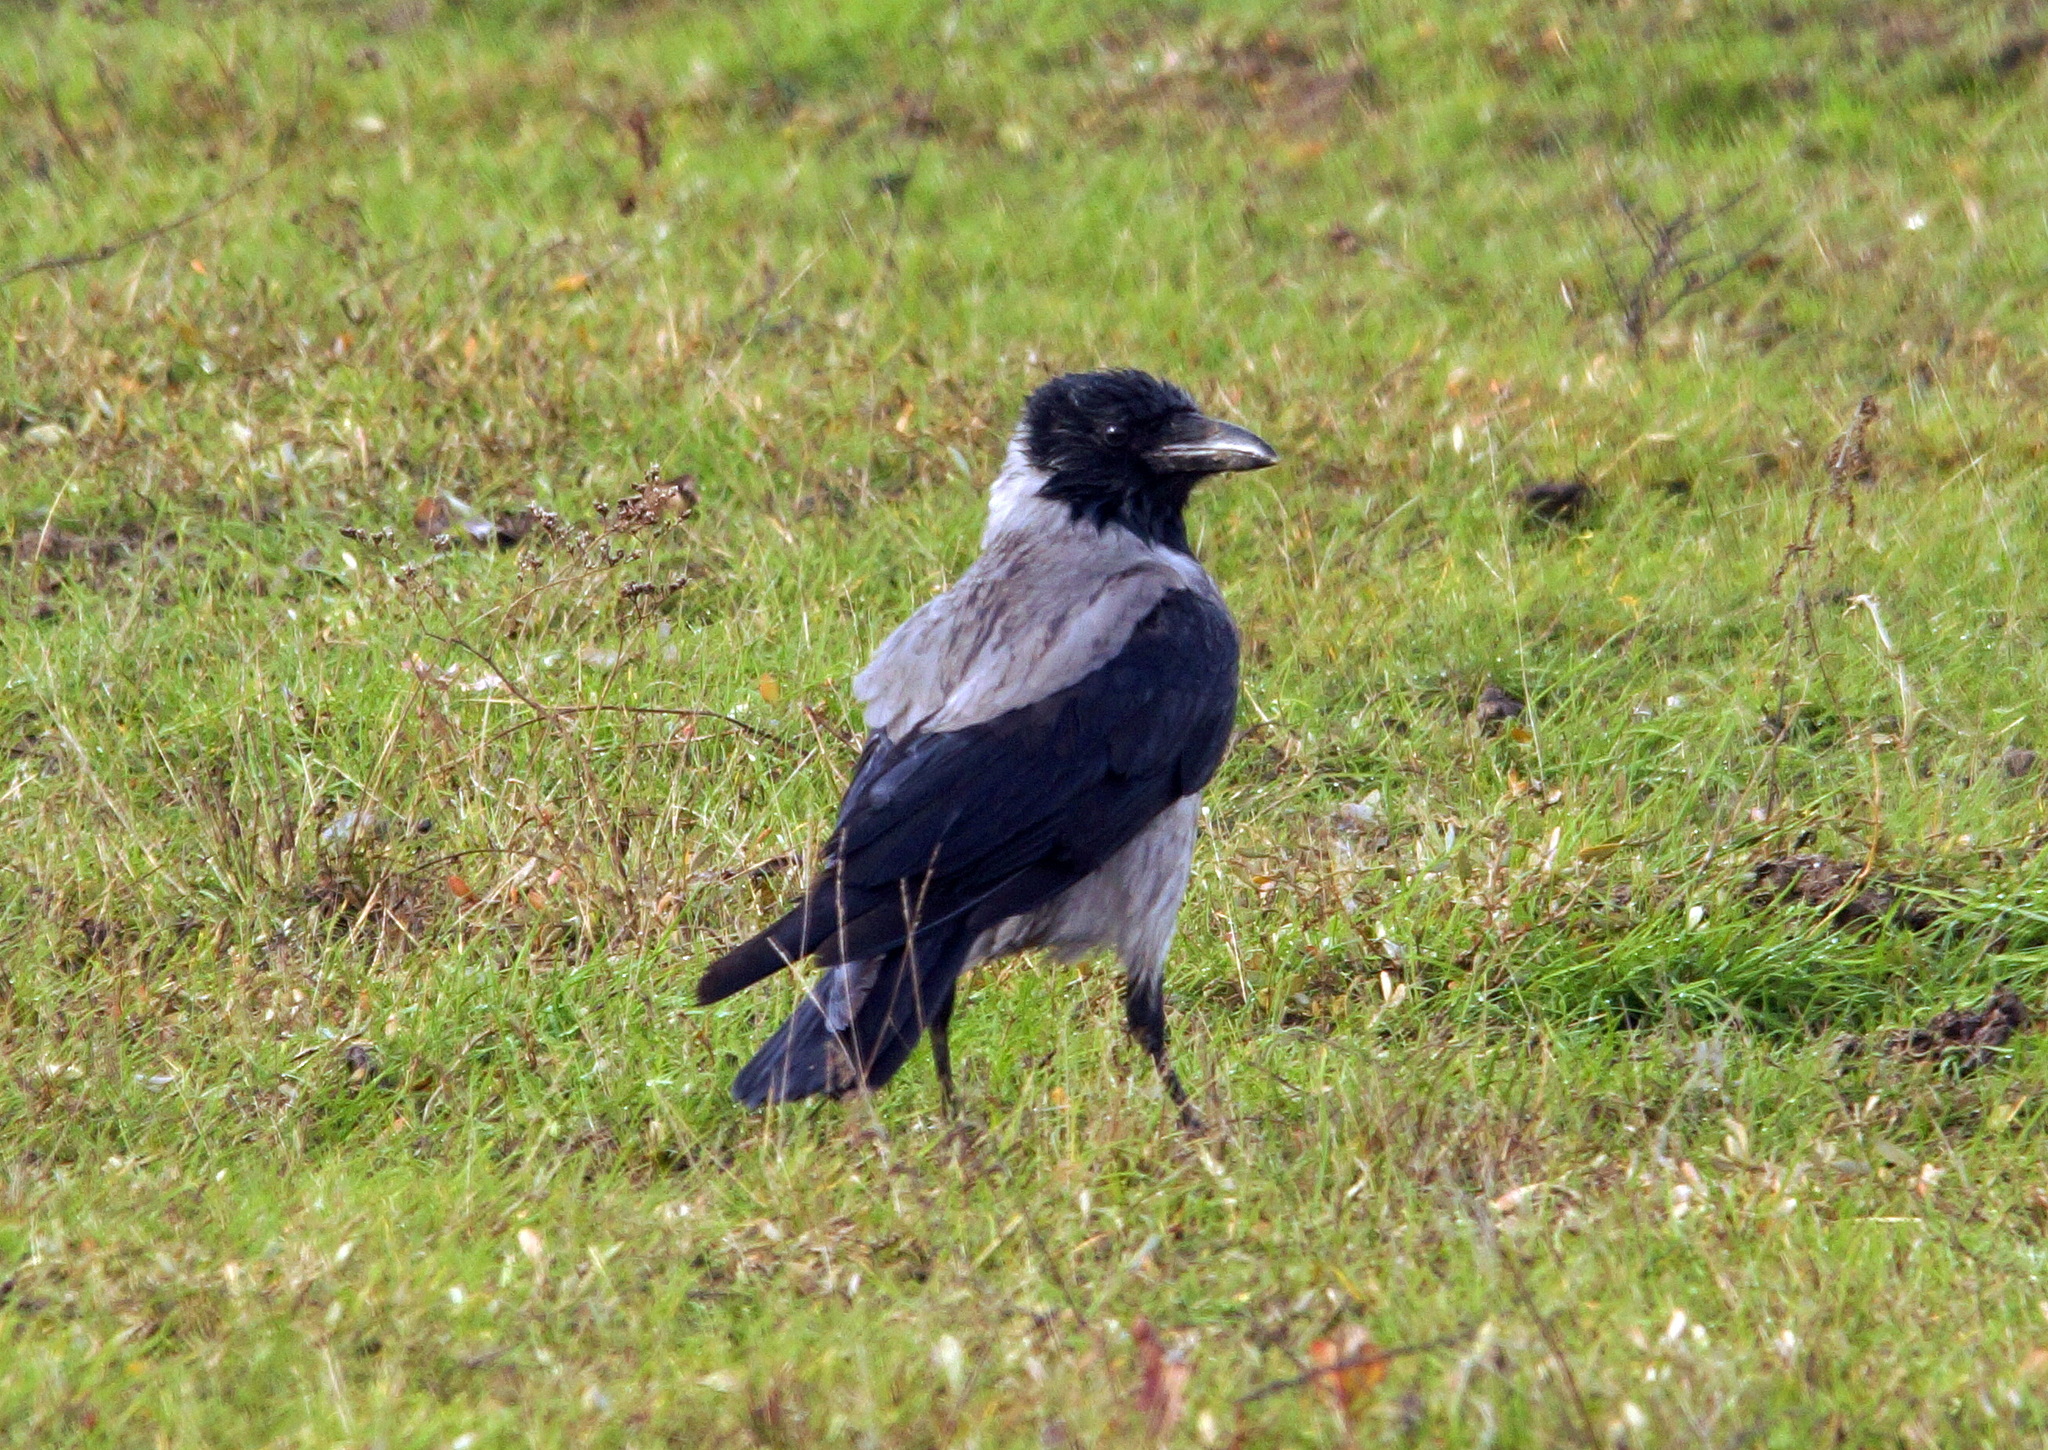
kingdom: Animalia
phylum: Chordata
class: Aves
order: Passeriformes
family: Corvidae
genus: Corvus
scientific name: Corvus cornix
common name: Hooded crow
